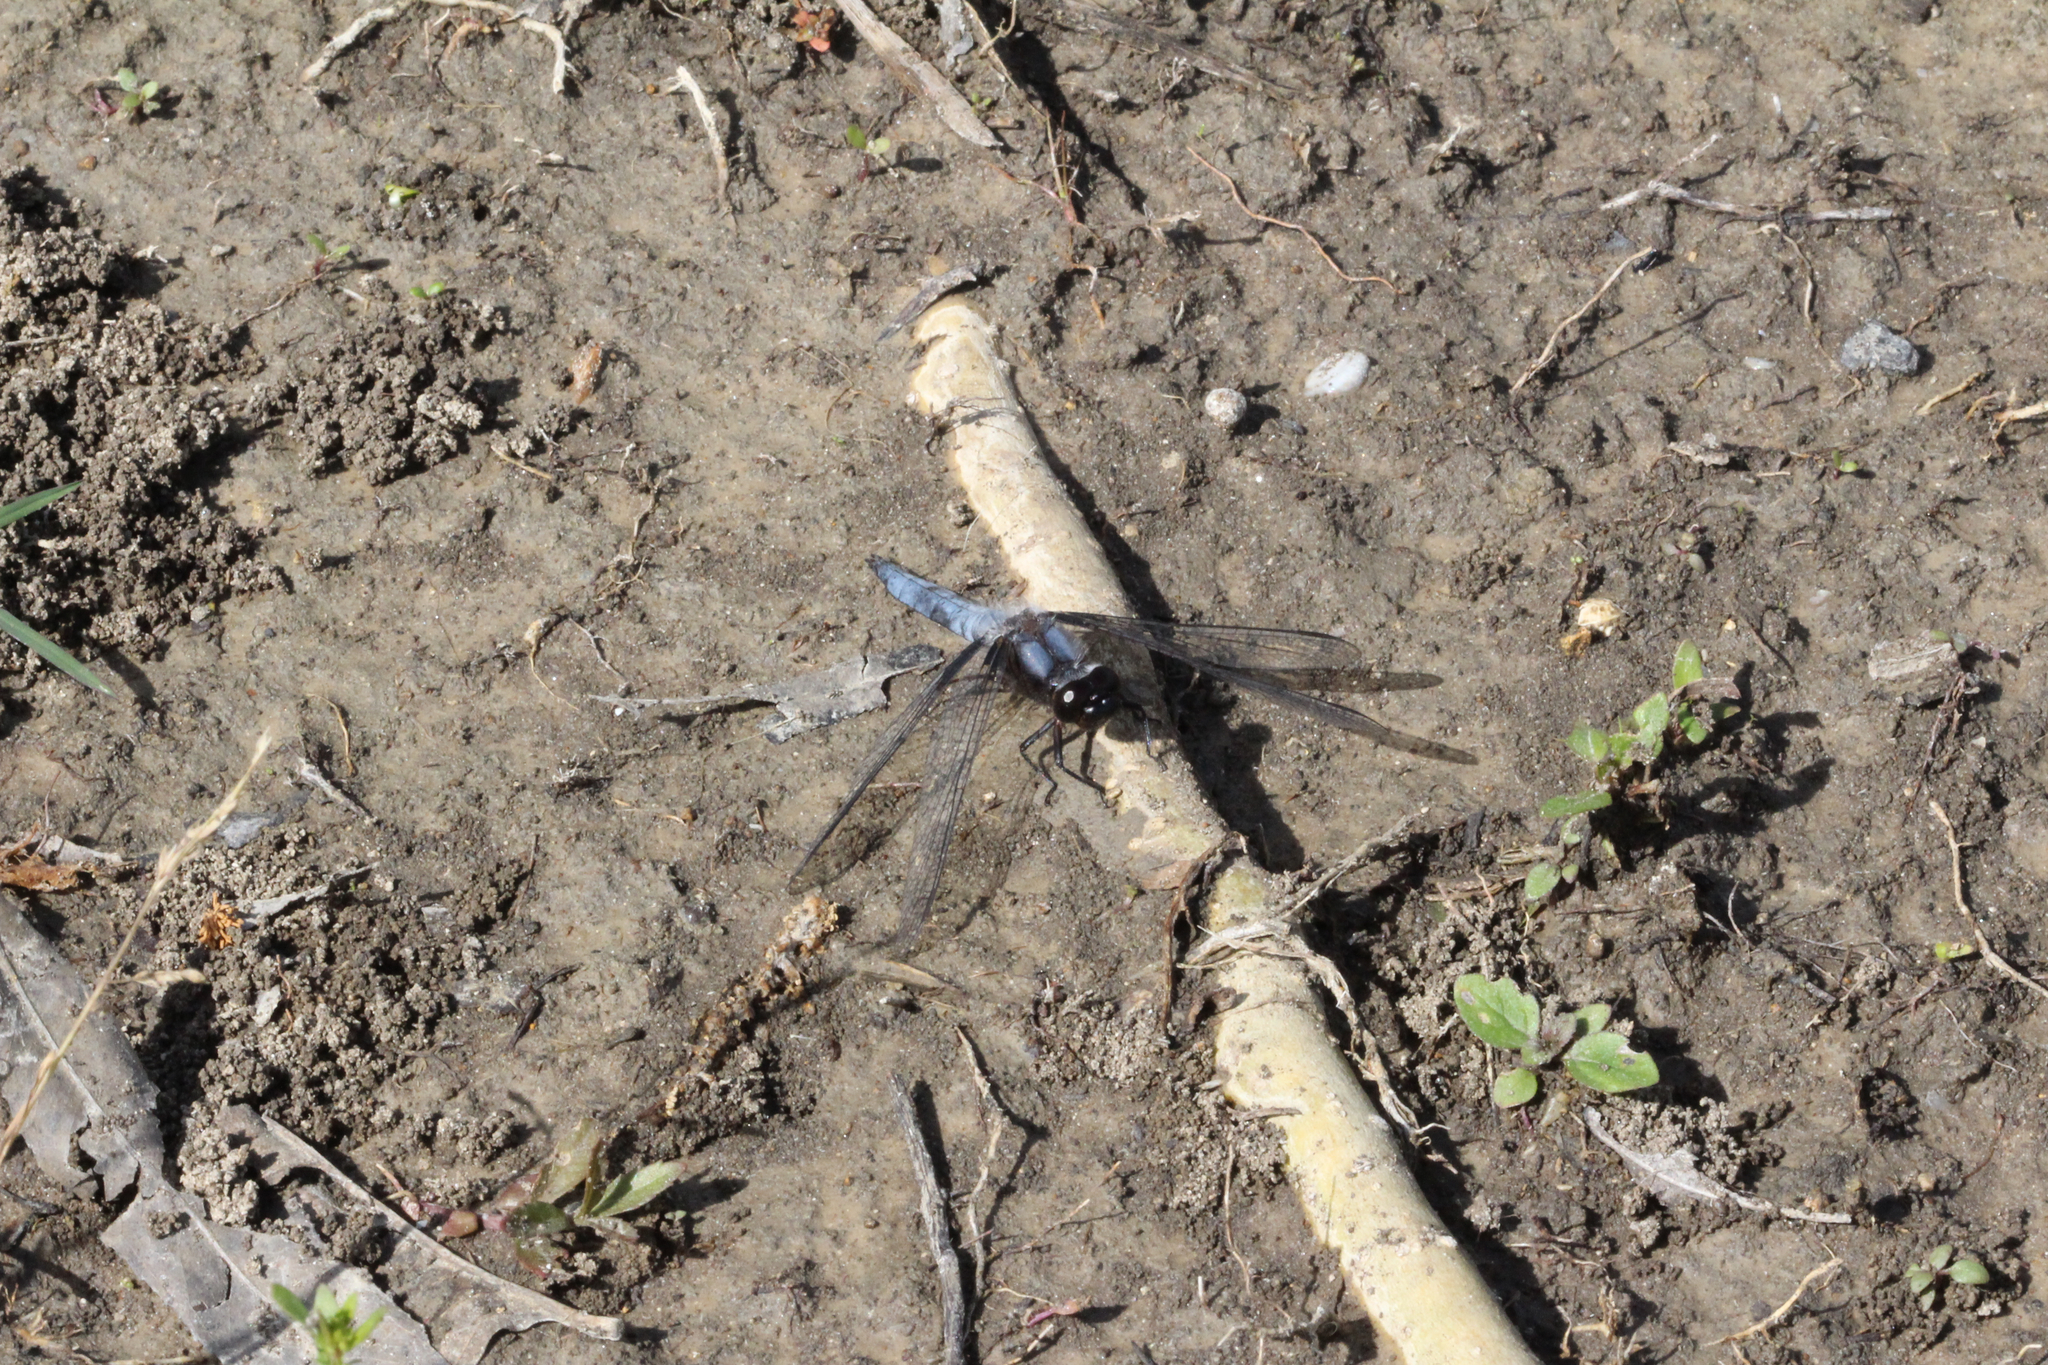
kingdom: Animalia
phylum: Arthropoda
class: Insecta
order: Odonata
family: Libellulidae
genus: Ladona
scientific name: Ladona deplanata
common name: Blue corporal
